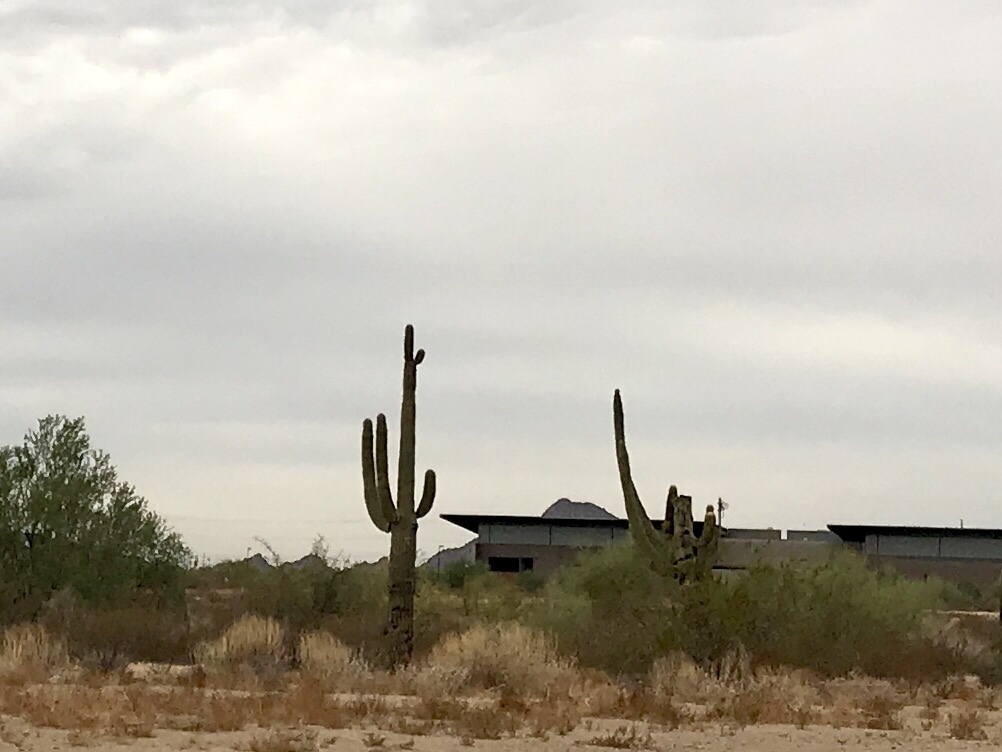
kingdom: Plantae
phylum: Tracheophyta
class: Magnoliopsida
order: Caryophyllales
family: Cactaceae
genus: Carnegiea
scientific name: Carnegiea gigantea
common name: Saguaro
